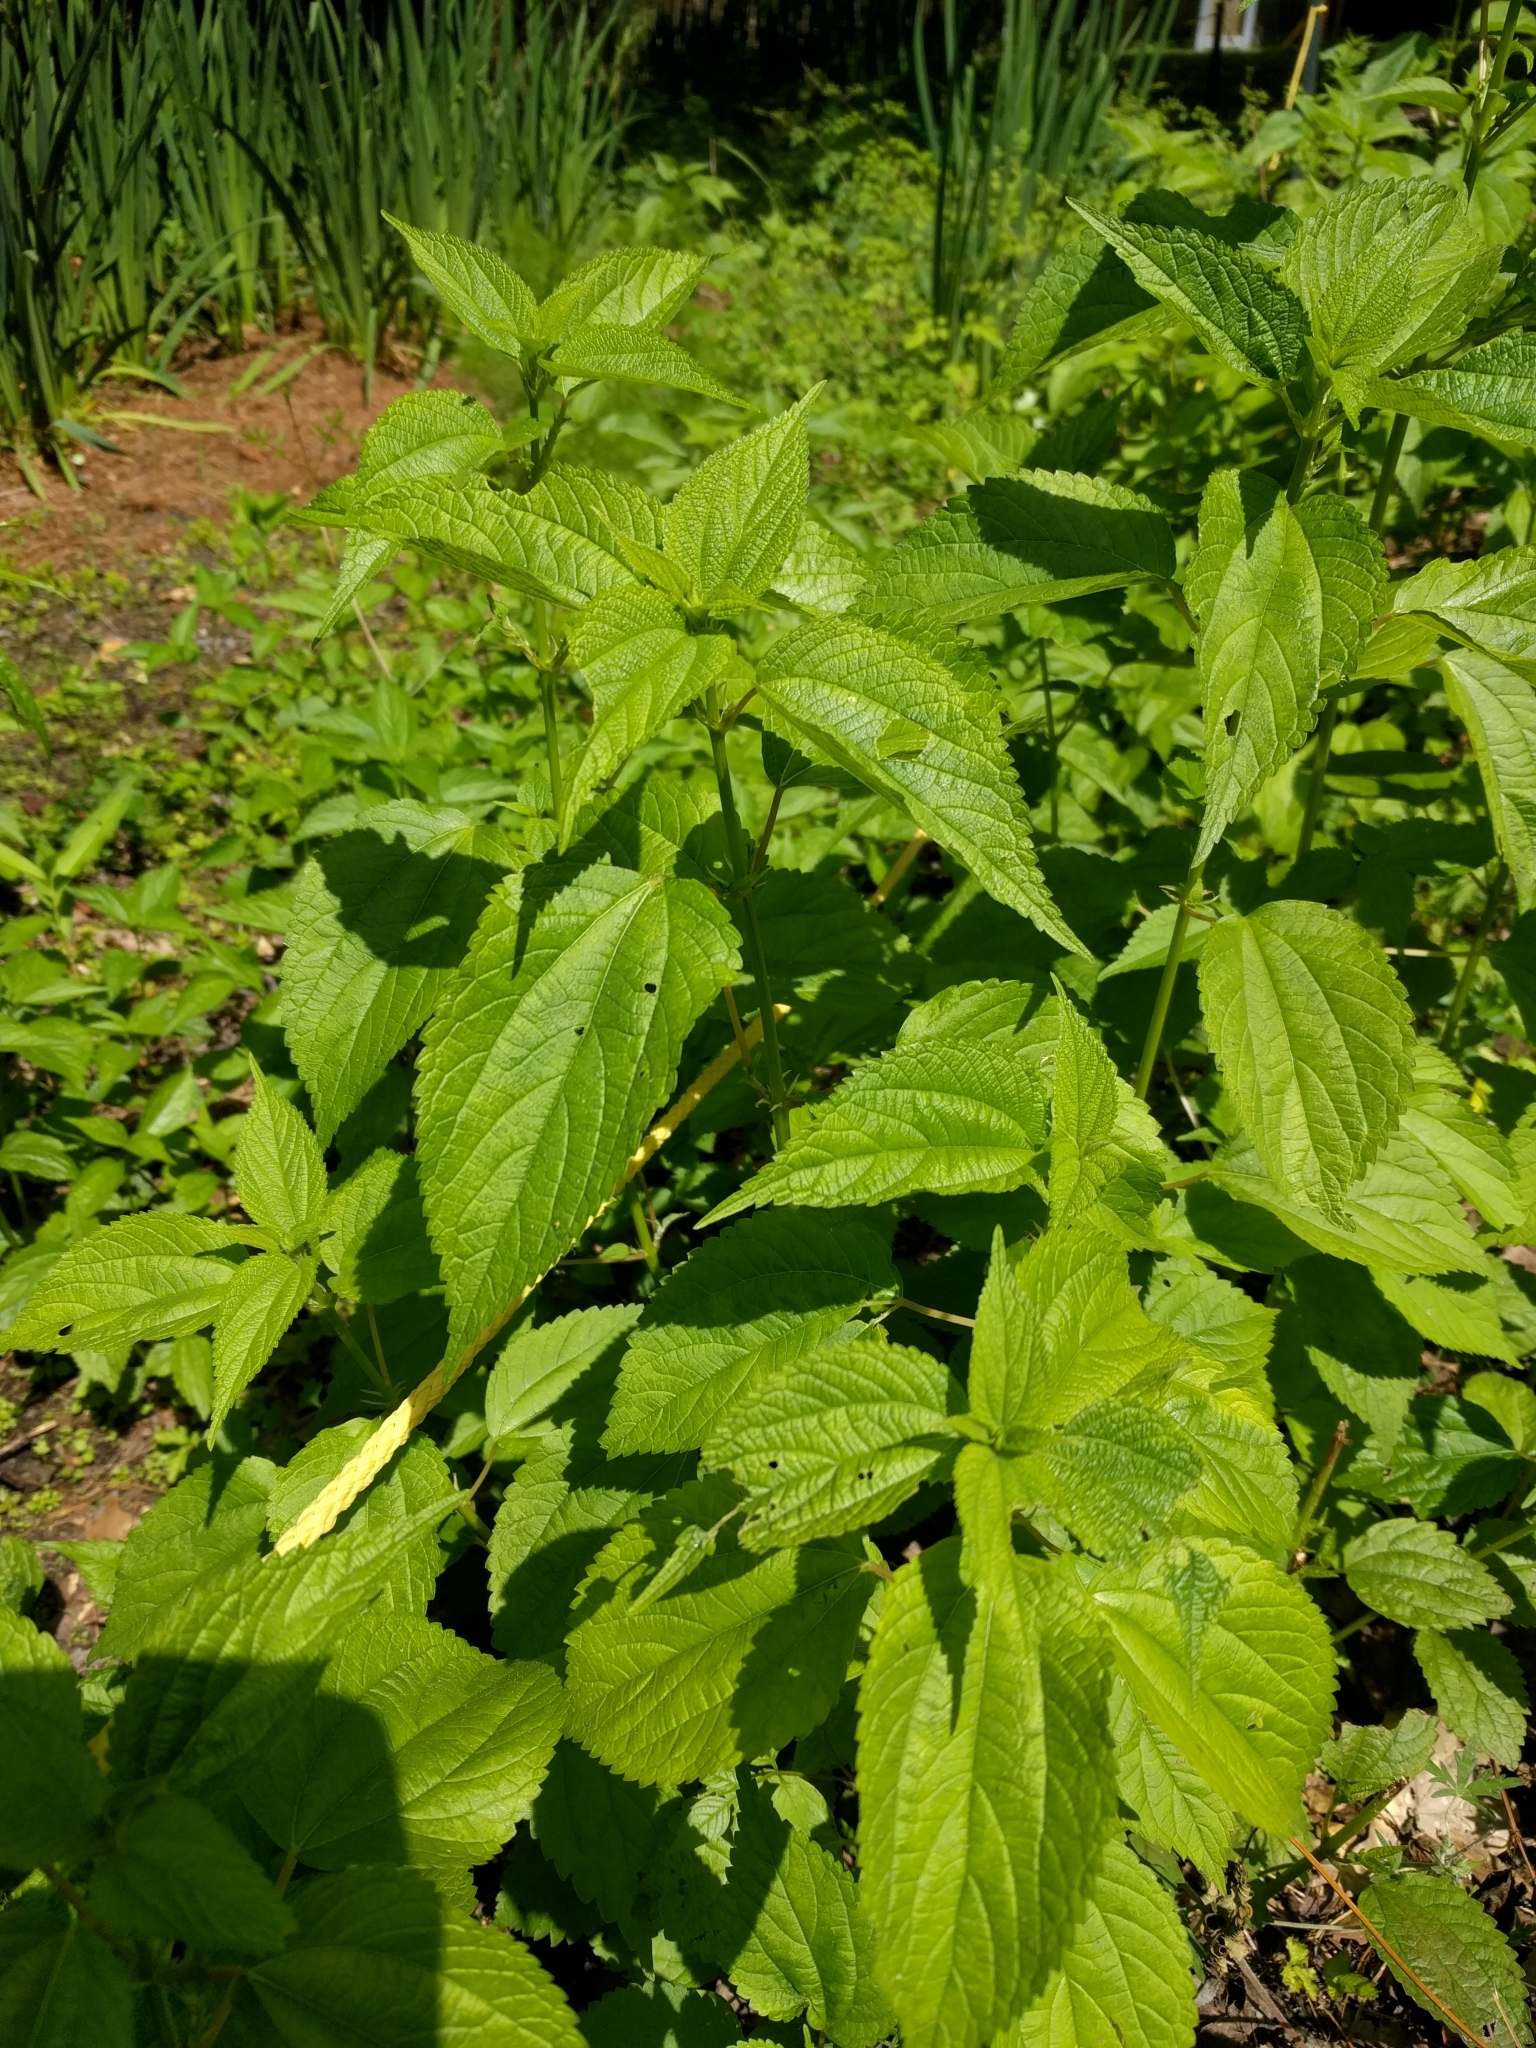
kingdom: Plantae
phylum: Tracheophyta
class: Magnoliopsida
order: Rosales
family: Urticaceae
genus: Boehmeria
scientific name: Boehmeria cylindrica
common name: Bog-hemp
